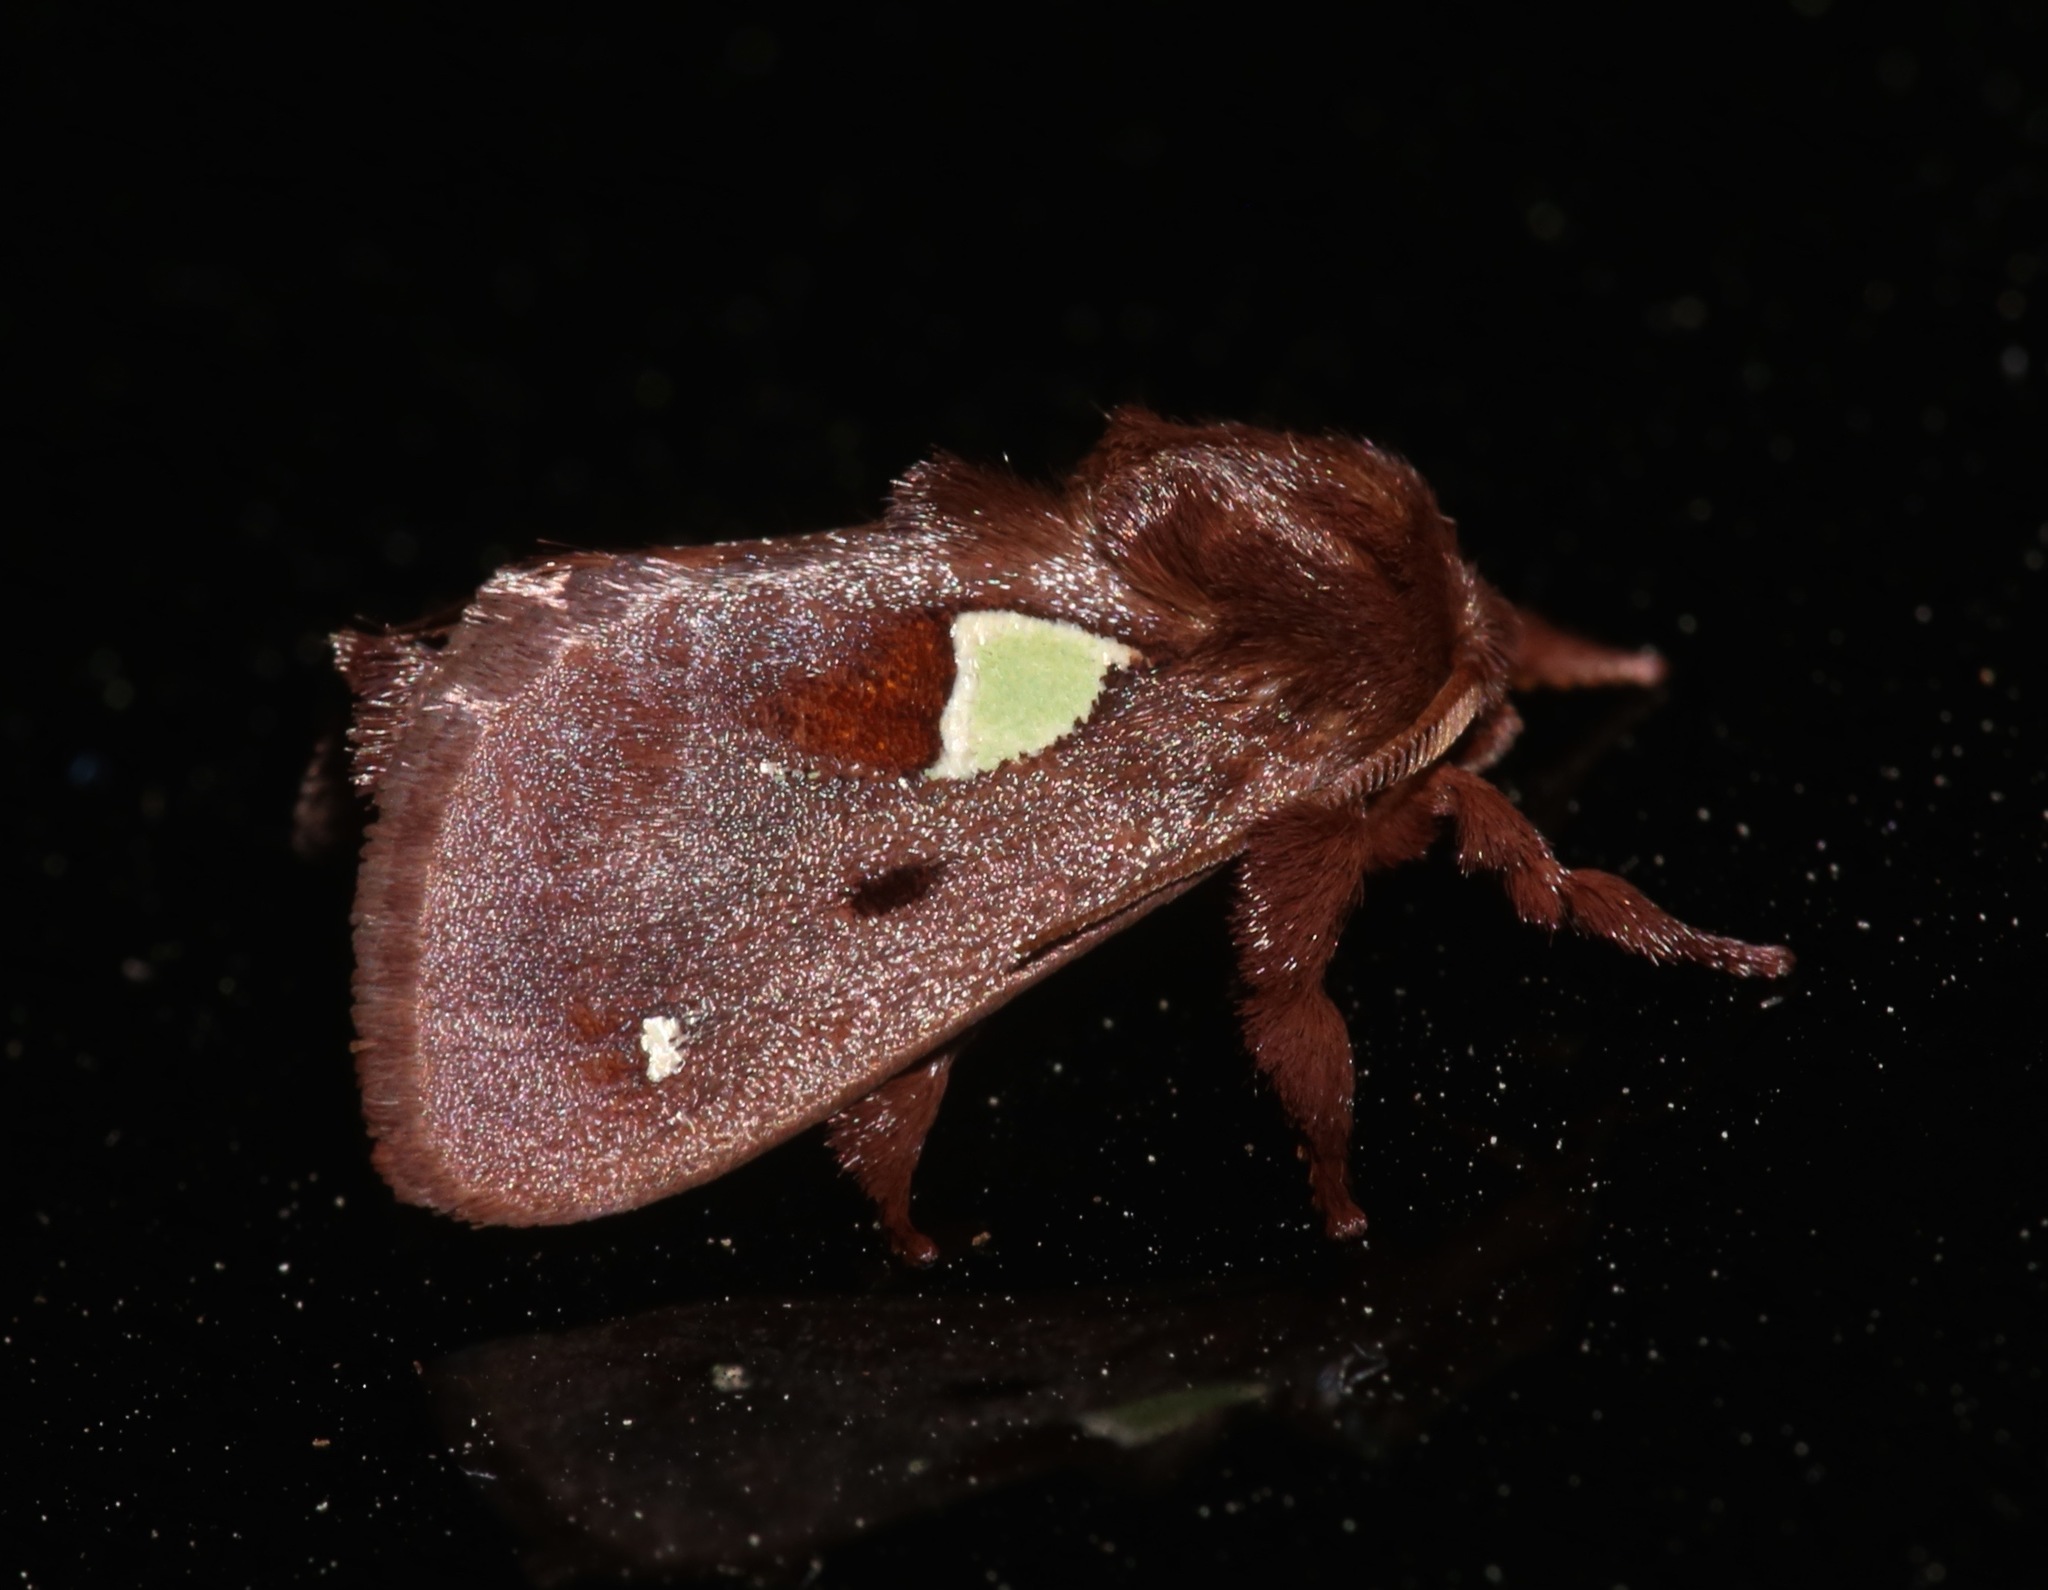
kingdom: Animalia
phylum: Arthropoda
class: Insecta
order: Lepidoptera
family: Limacodidae
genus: Euclea
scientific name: Euclea delphinii
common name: Spiny oak-slug moth
